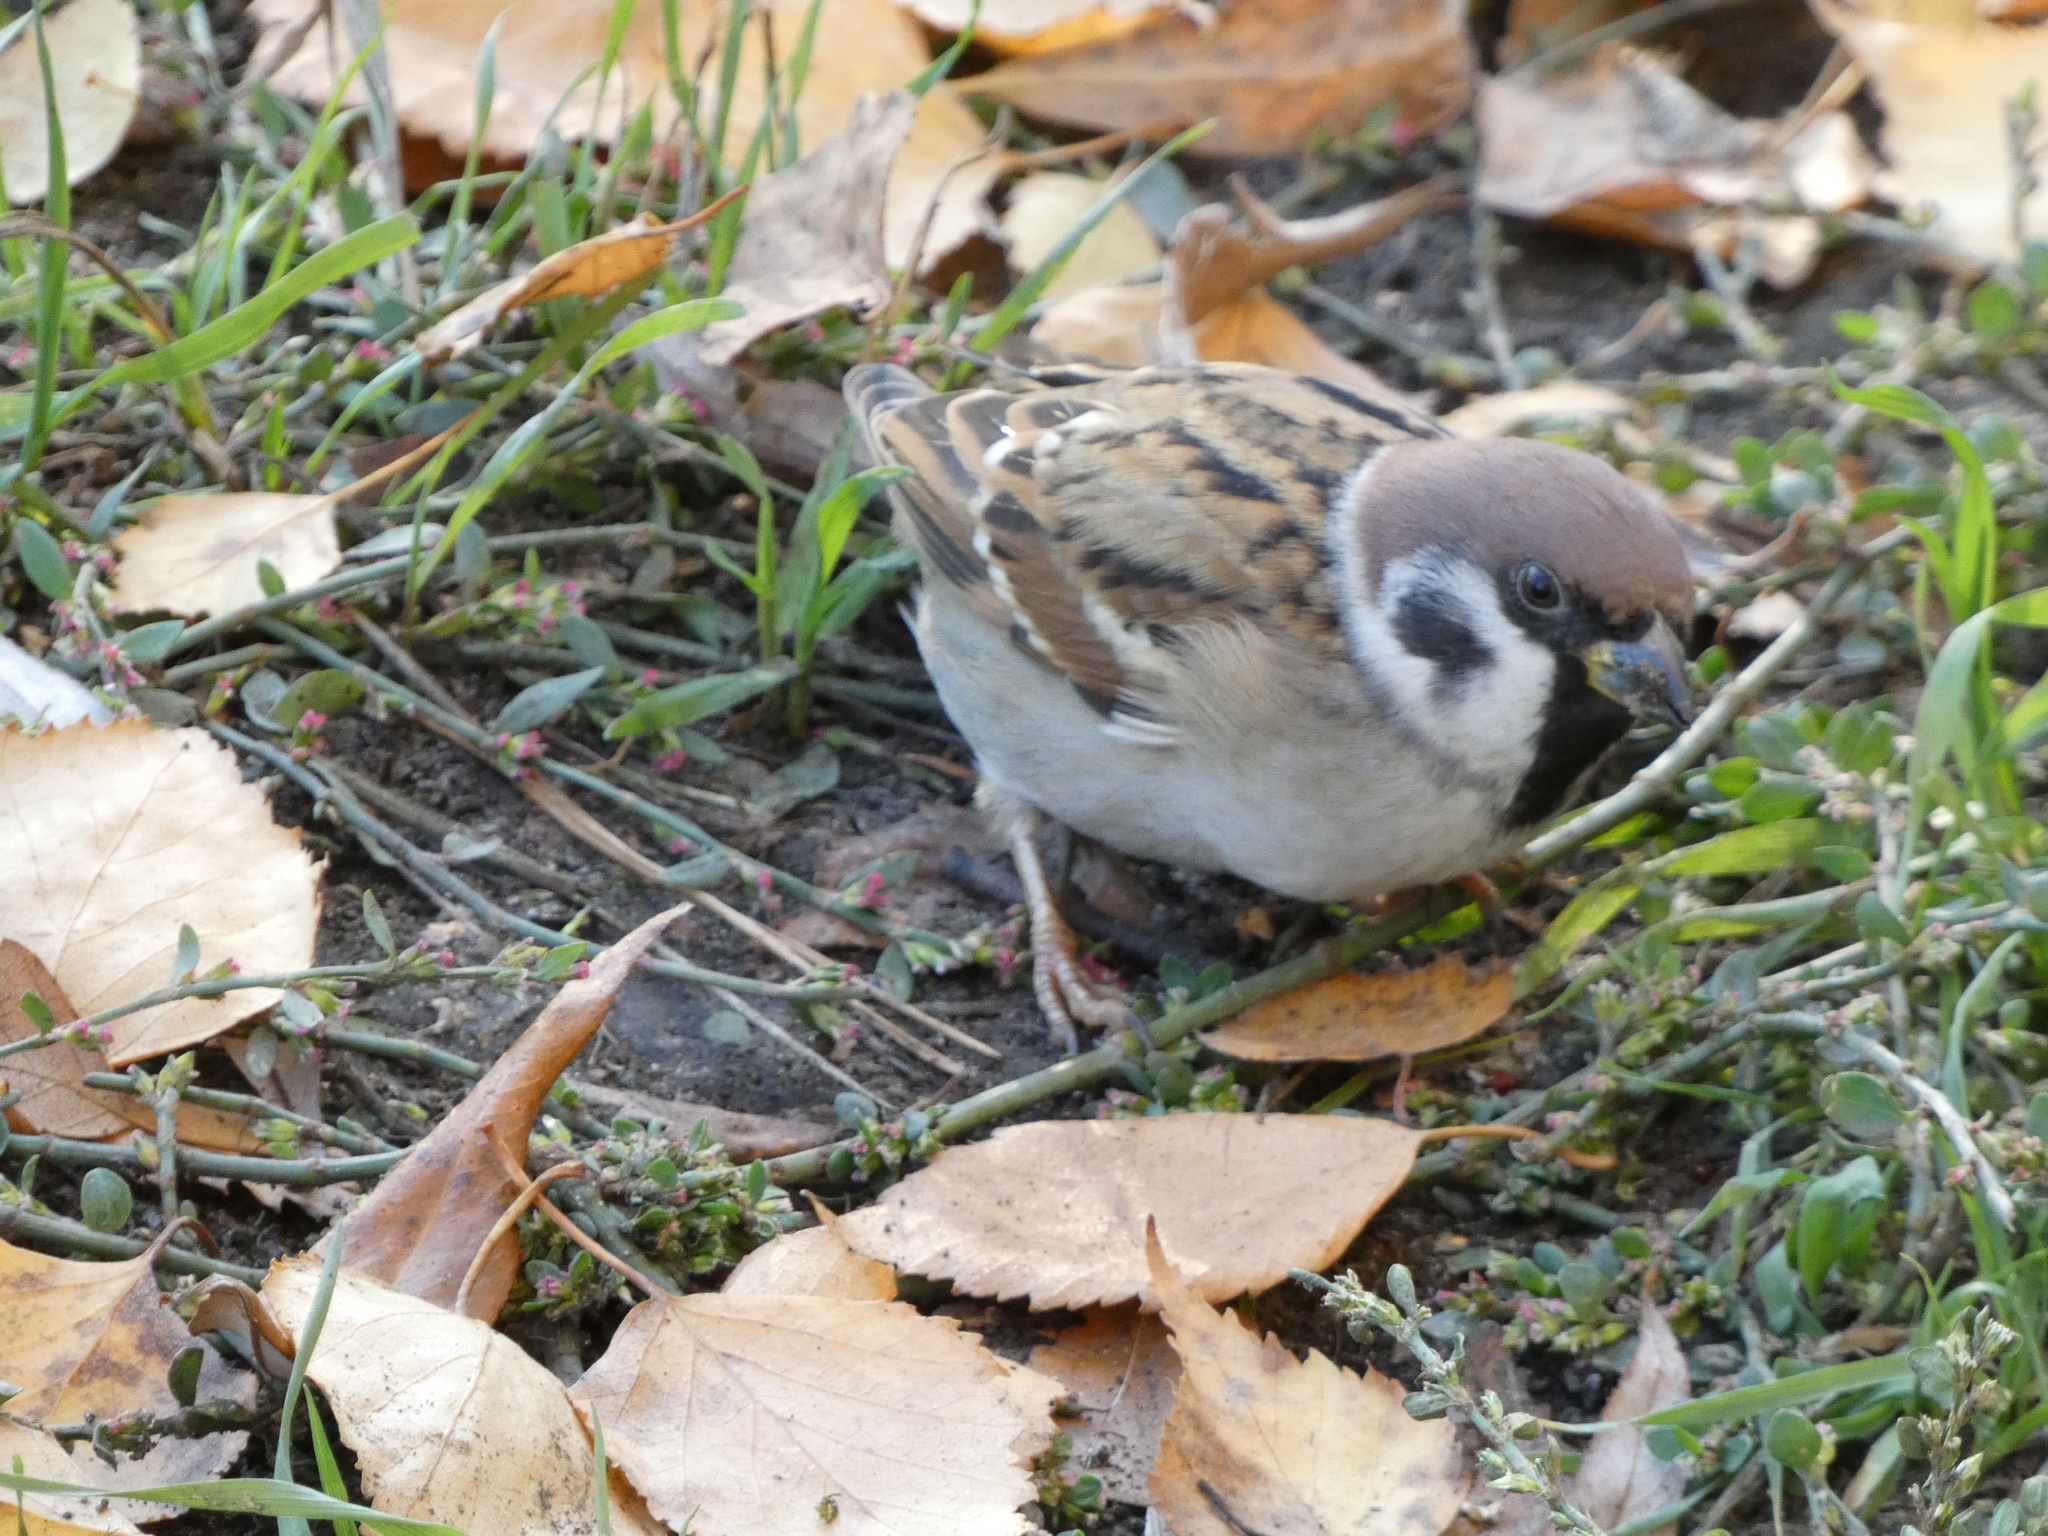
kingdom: Animalia
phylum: Chordata
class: Aves
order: Passeriformes
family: Passeridae
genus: Passer
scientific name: Passer montanus
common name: Eurasian tree sparrow
